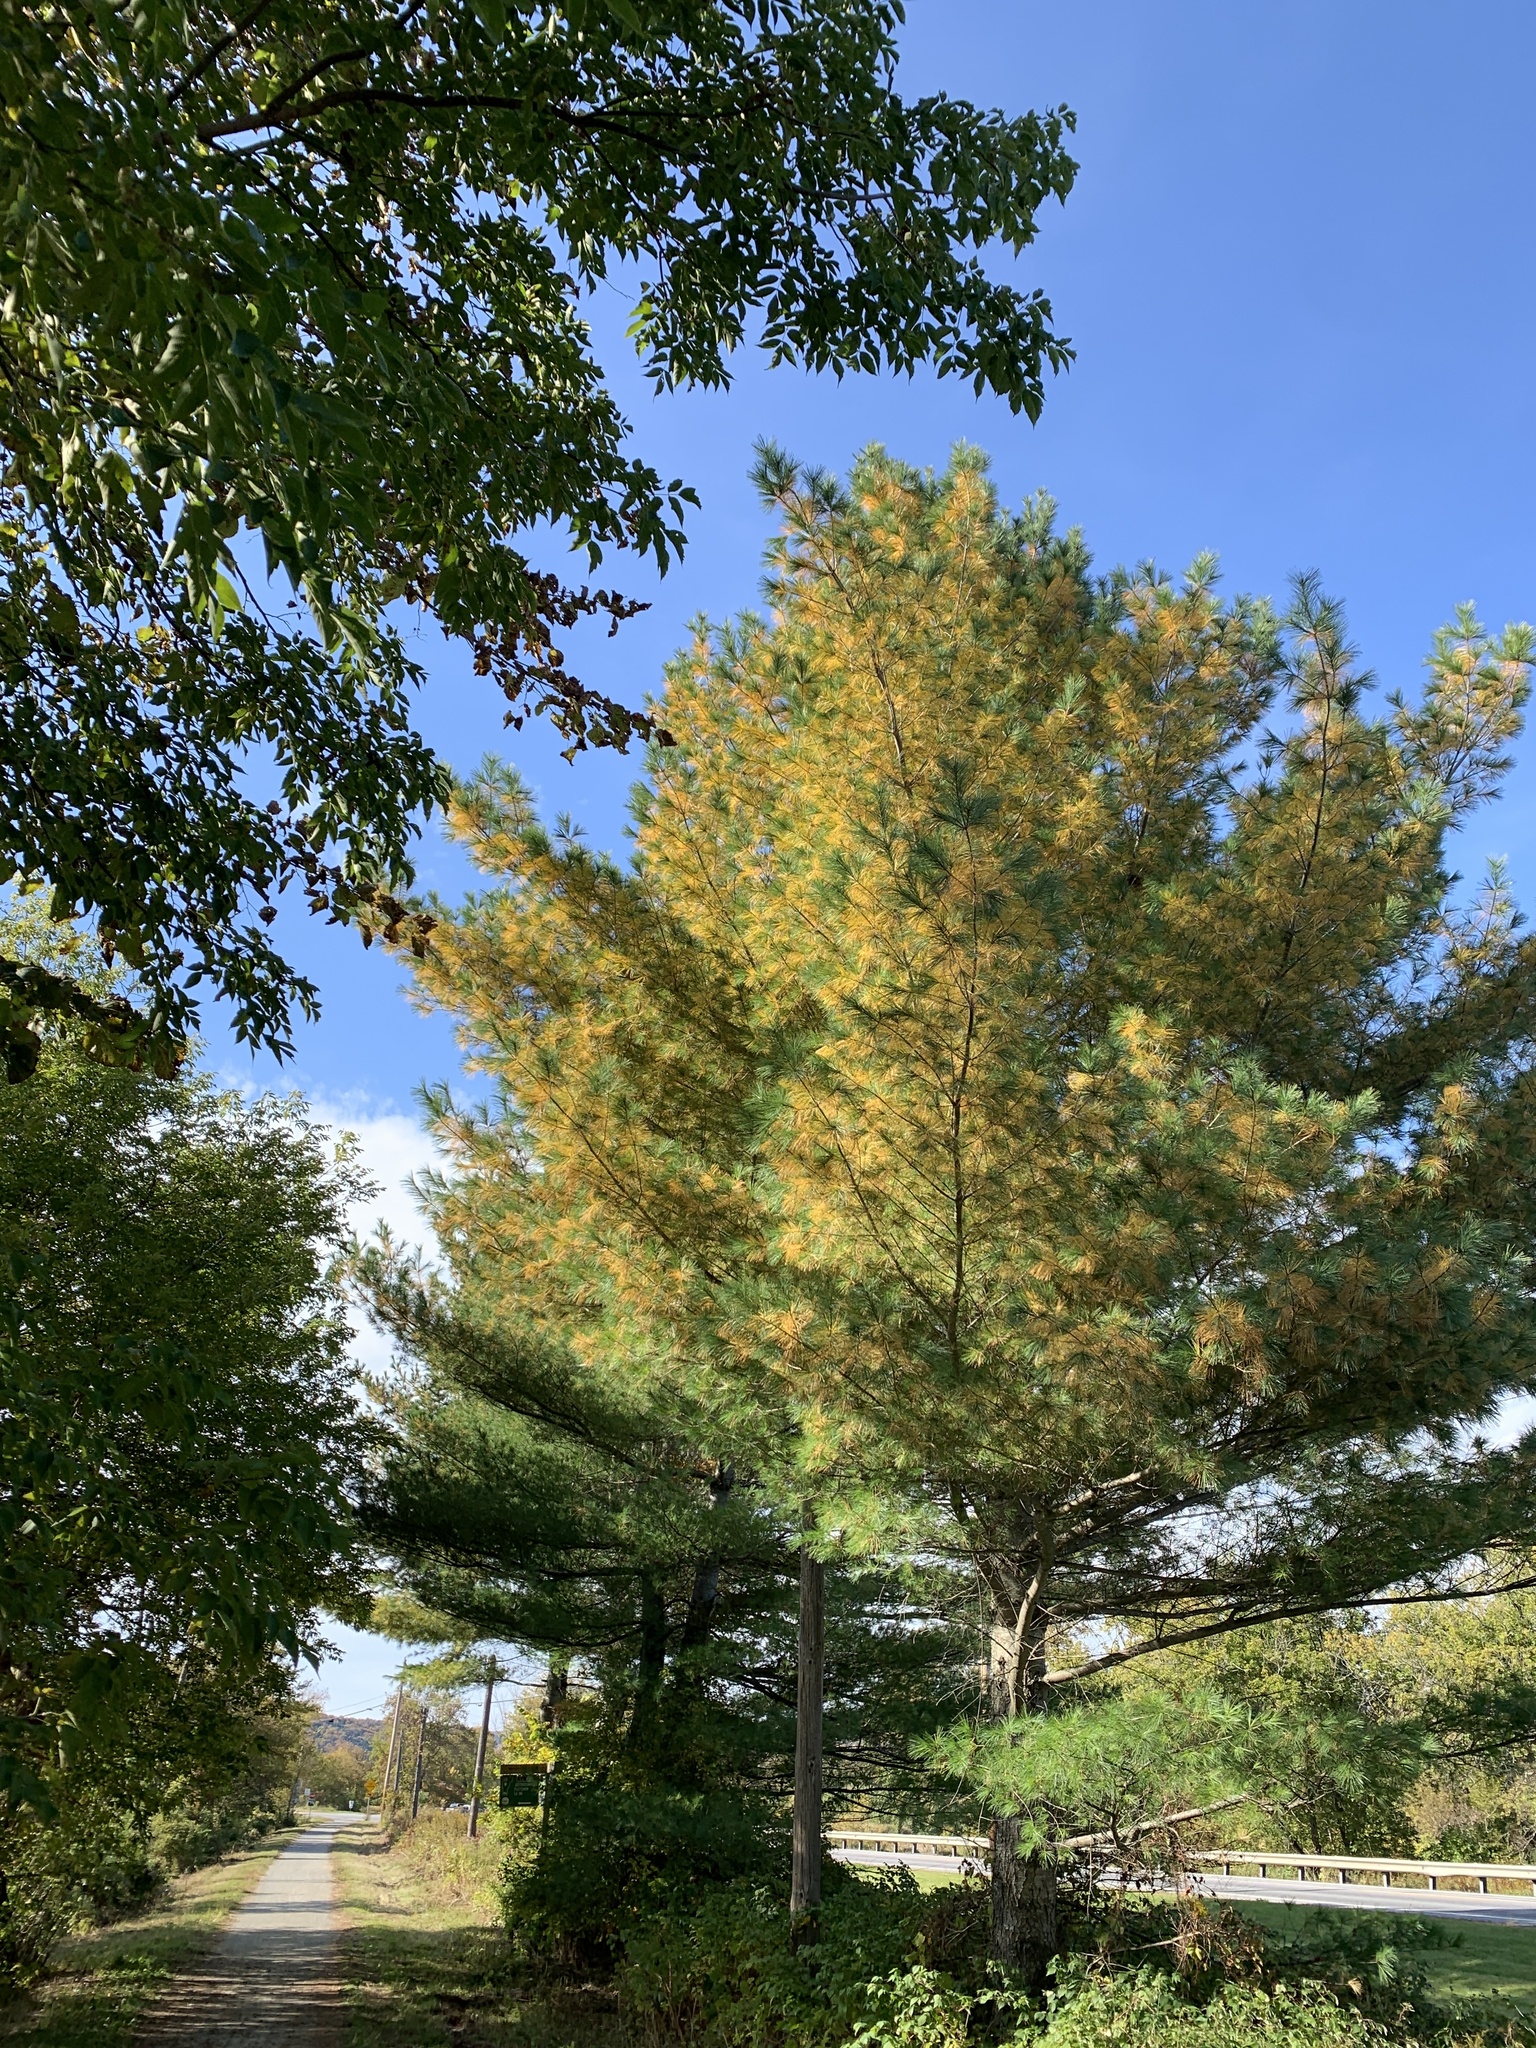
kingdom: Plantae
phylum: Tracheophyta
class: Pinopsida
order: Pinales
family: Pinaceae
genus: Pinus
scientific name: Pinus strobus
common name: Weymouth pine
